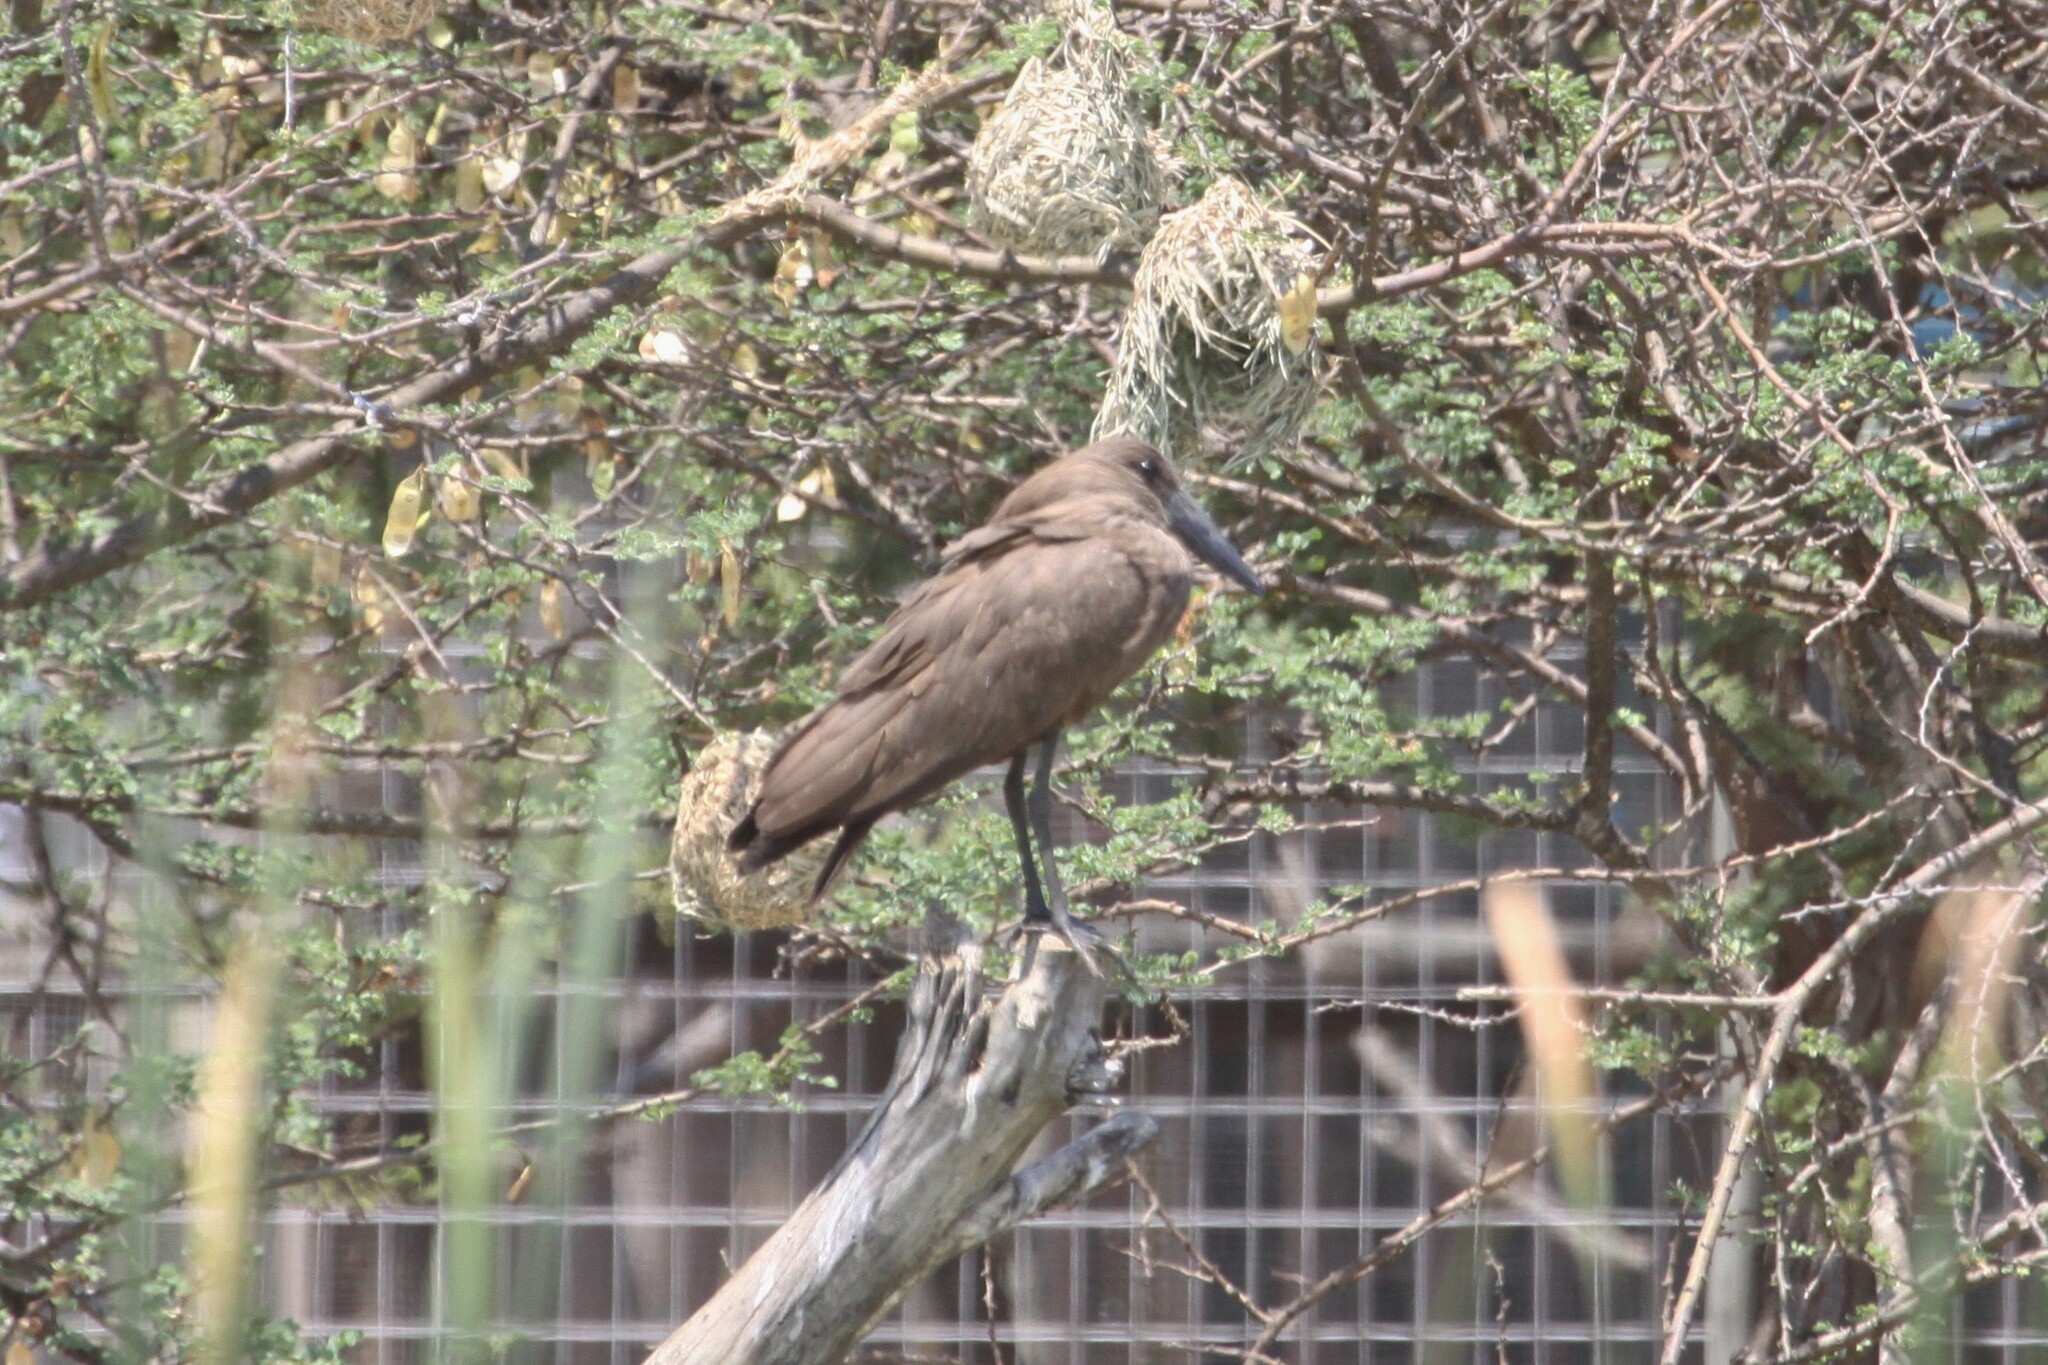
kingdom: Animalia
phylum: Chordata
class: Aves
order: Pelecaniformes
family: Scopidae
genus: Scopus
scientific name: Scopus umbretta
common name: Hamerkop
